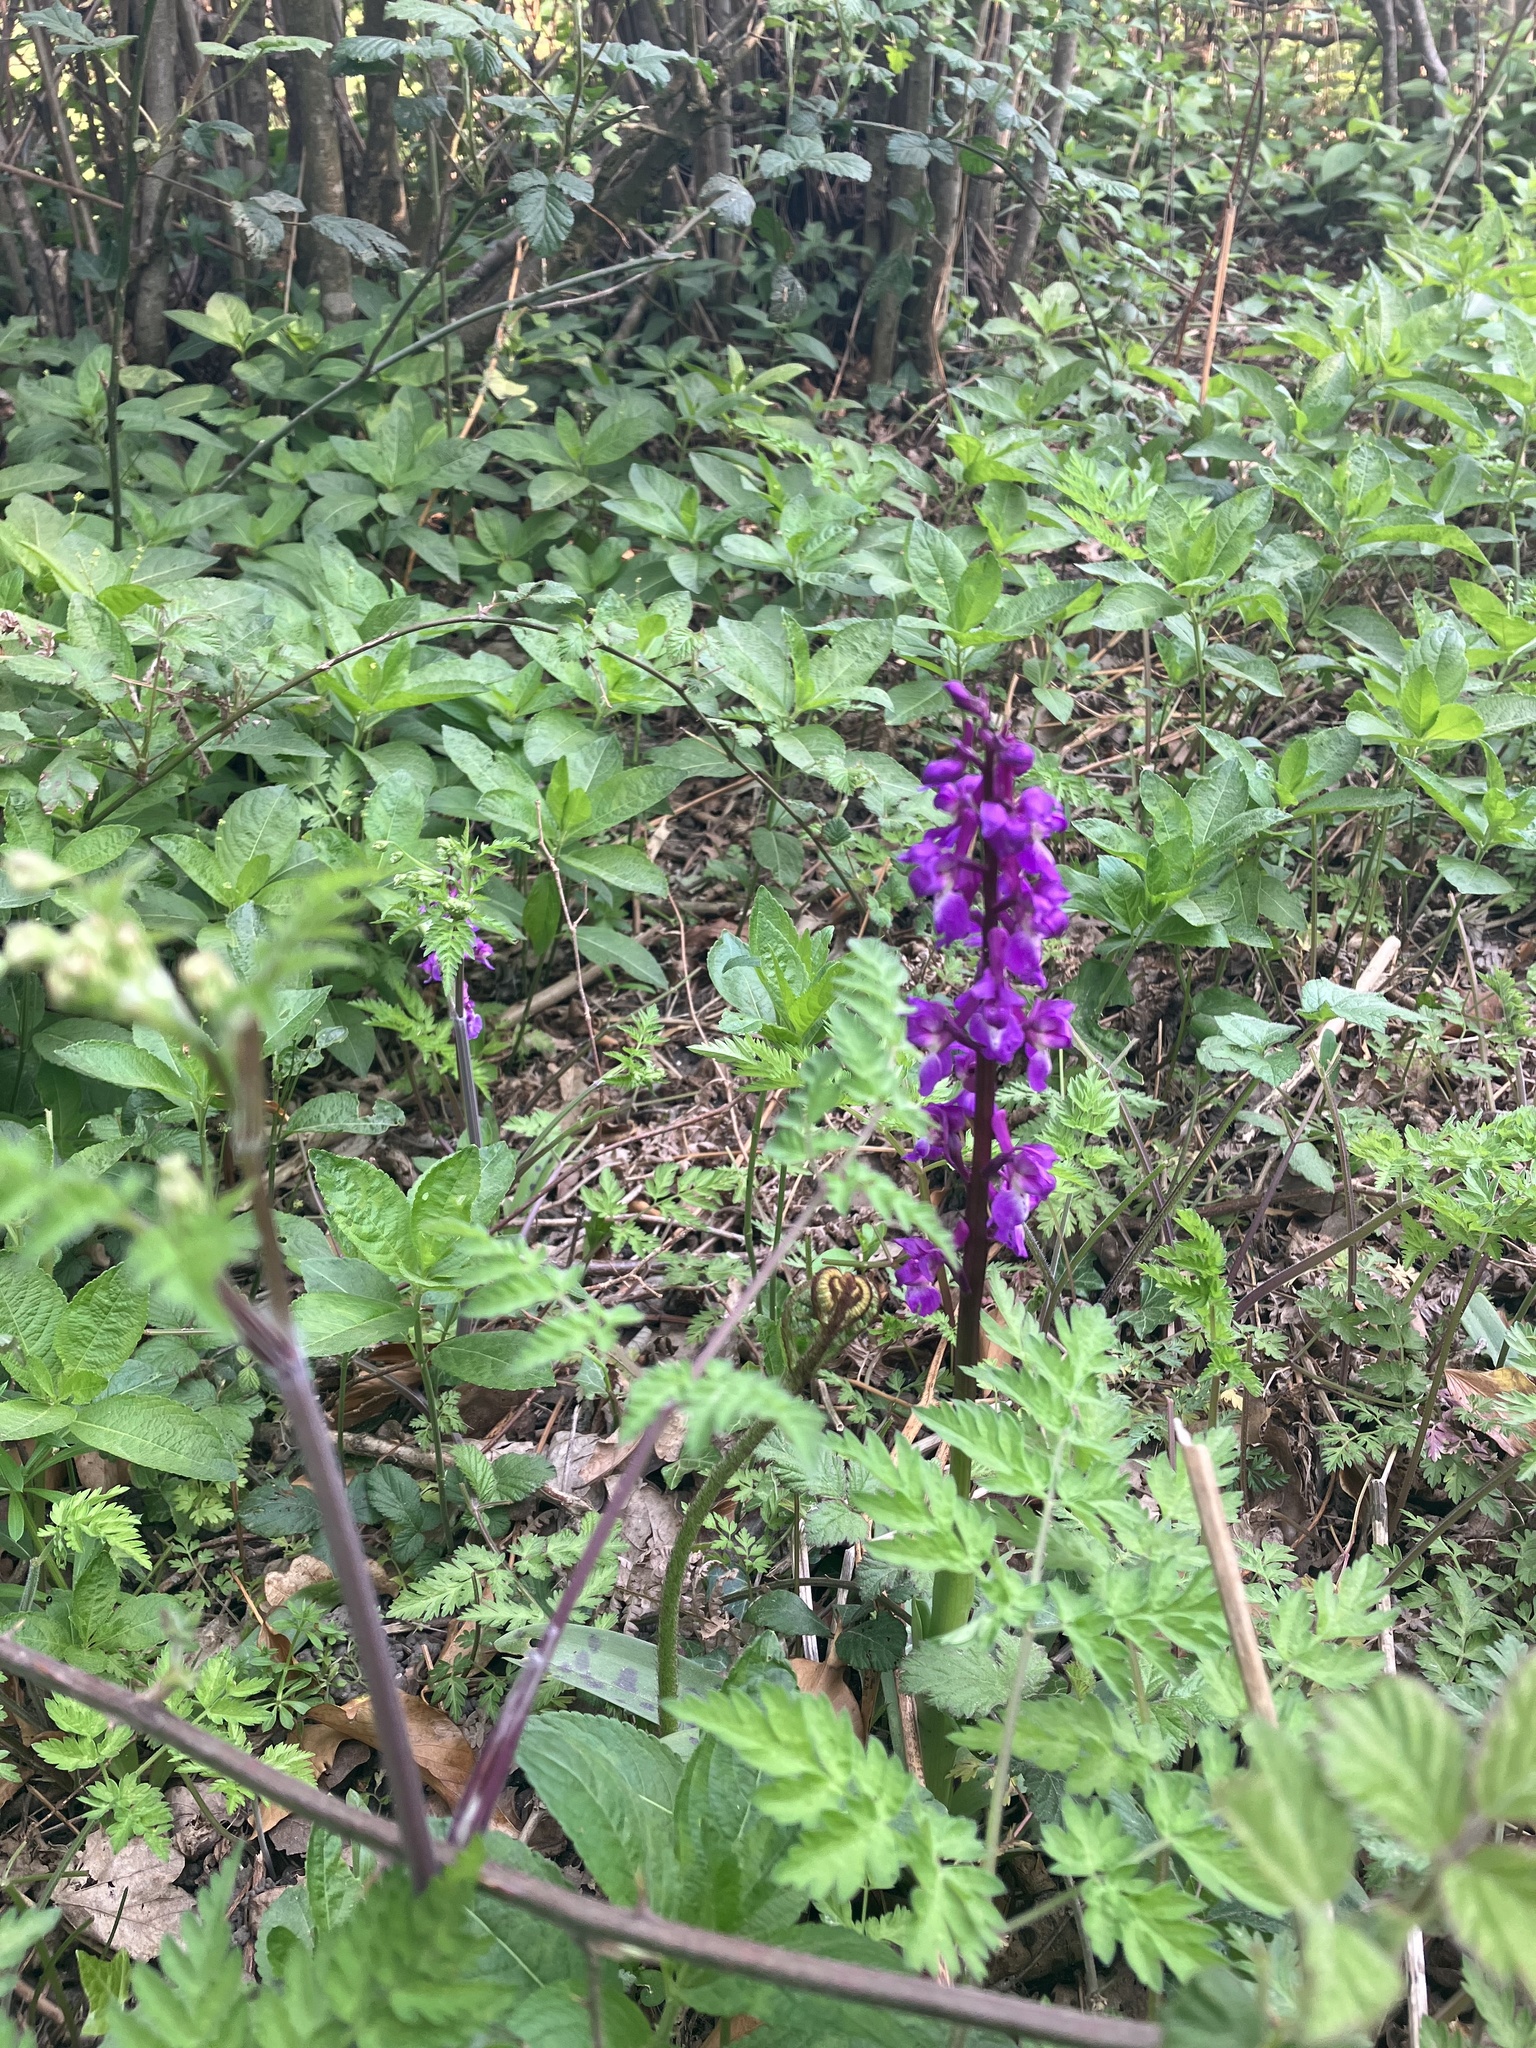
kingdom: Plantae
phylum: Tracheophyta
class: Liliopsida
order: Asparagales
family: Orchidaceae
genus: Orchis
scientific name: Orchis mascula
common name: Early-purple orchid
